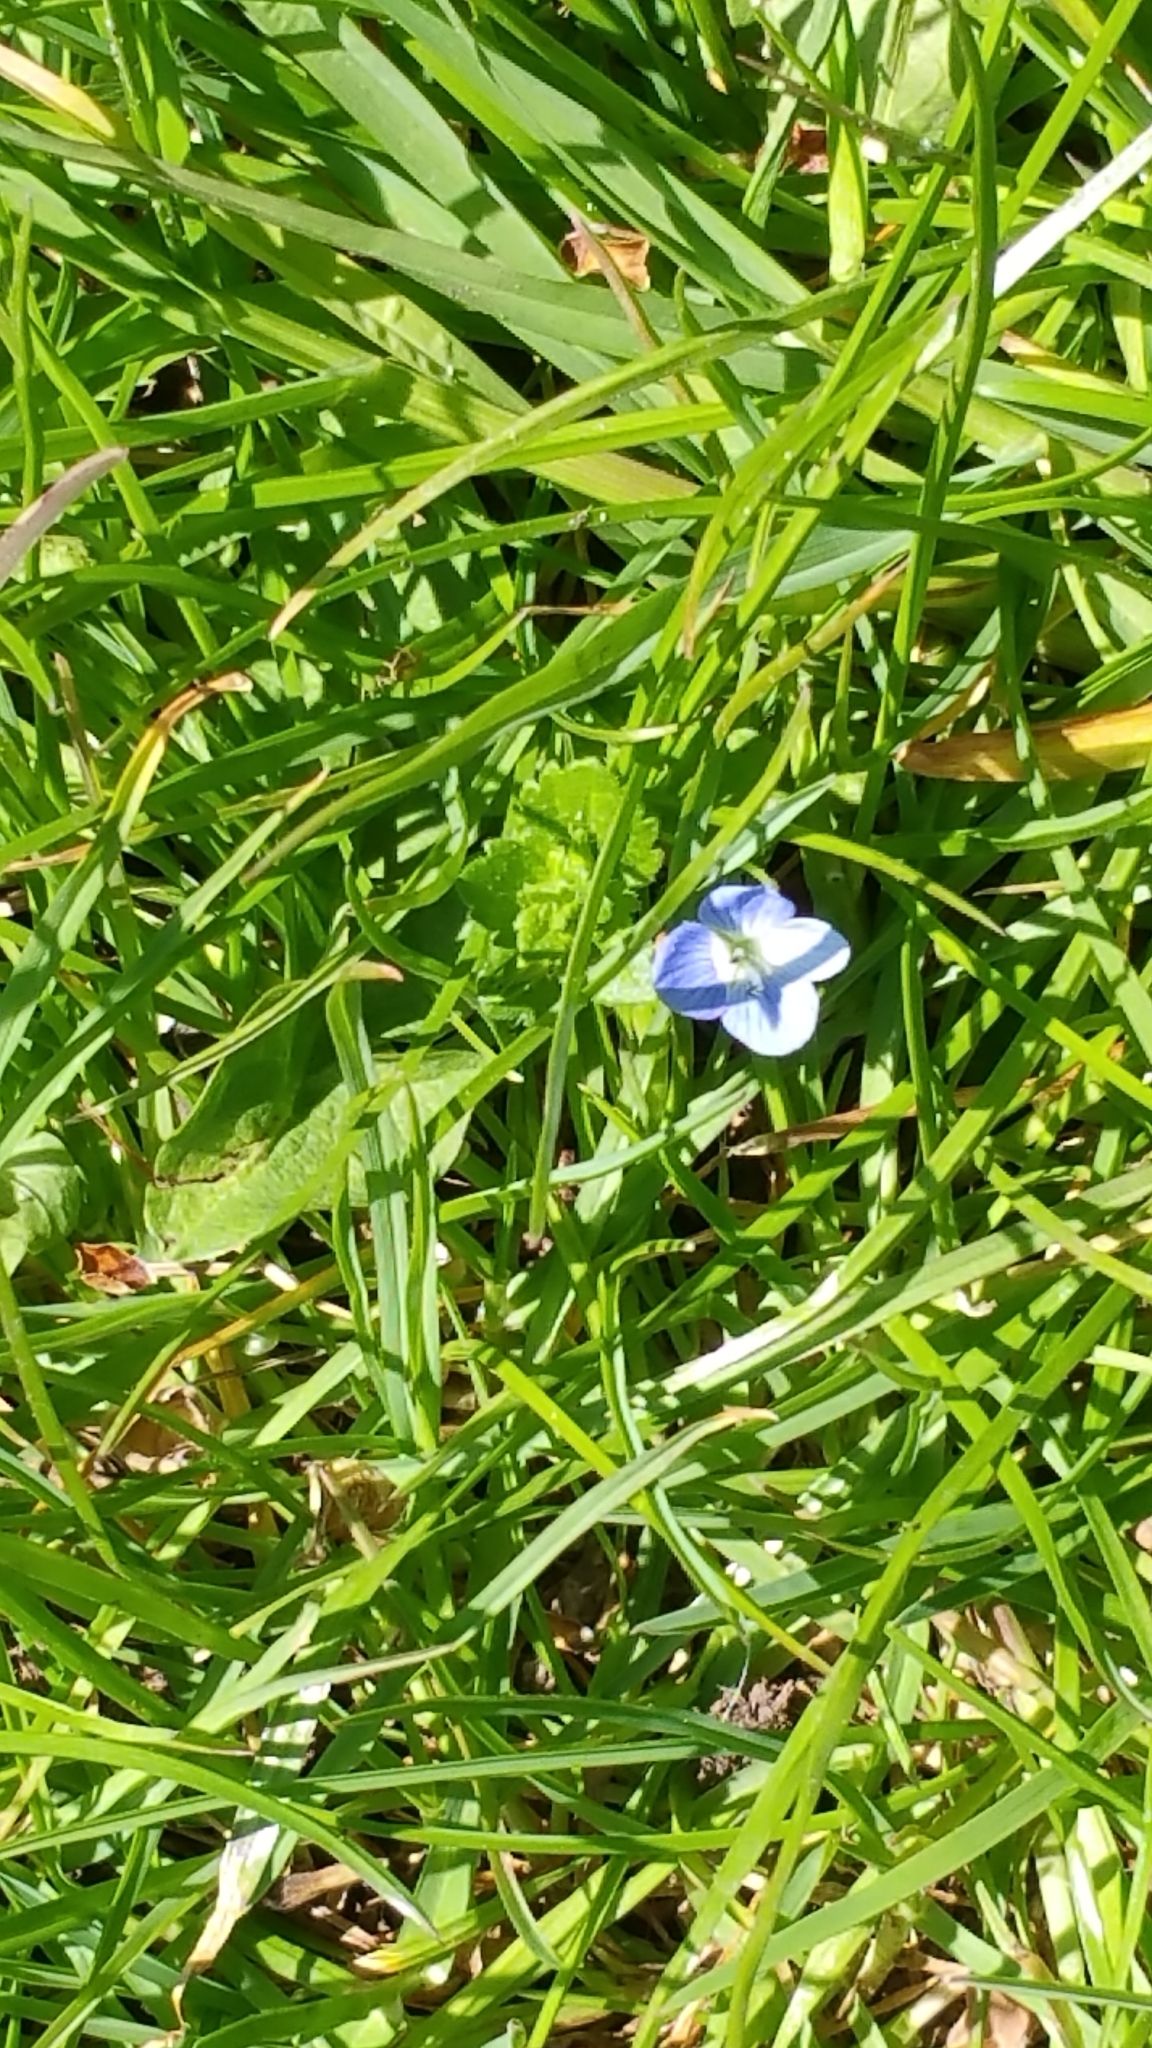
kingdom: Plantae
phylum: Tracheophyta
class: Magnoliopsida
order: Lamiales
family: Plantaginaceae
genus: Veronica
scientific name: Veronica persica
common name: Common field-speedwell
